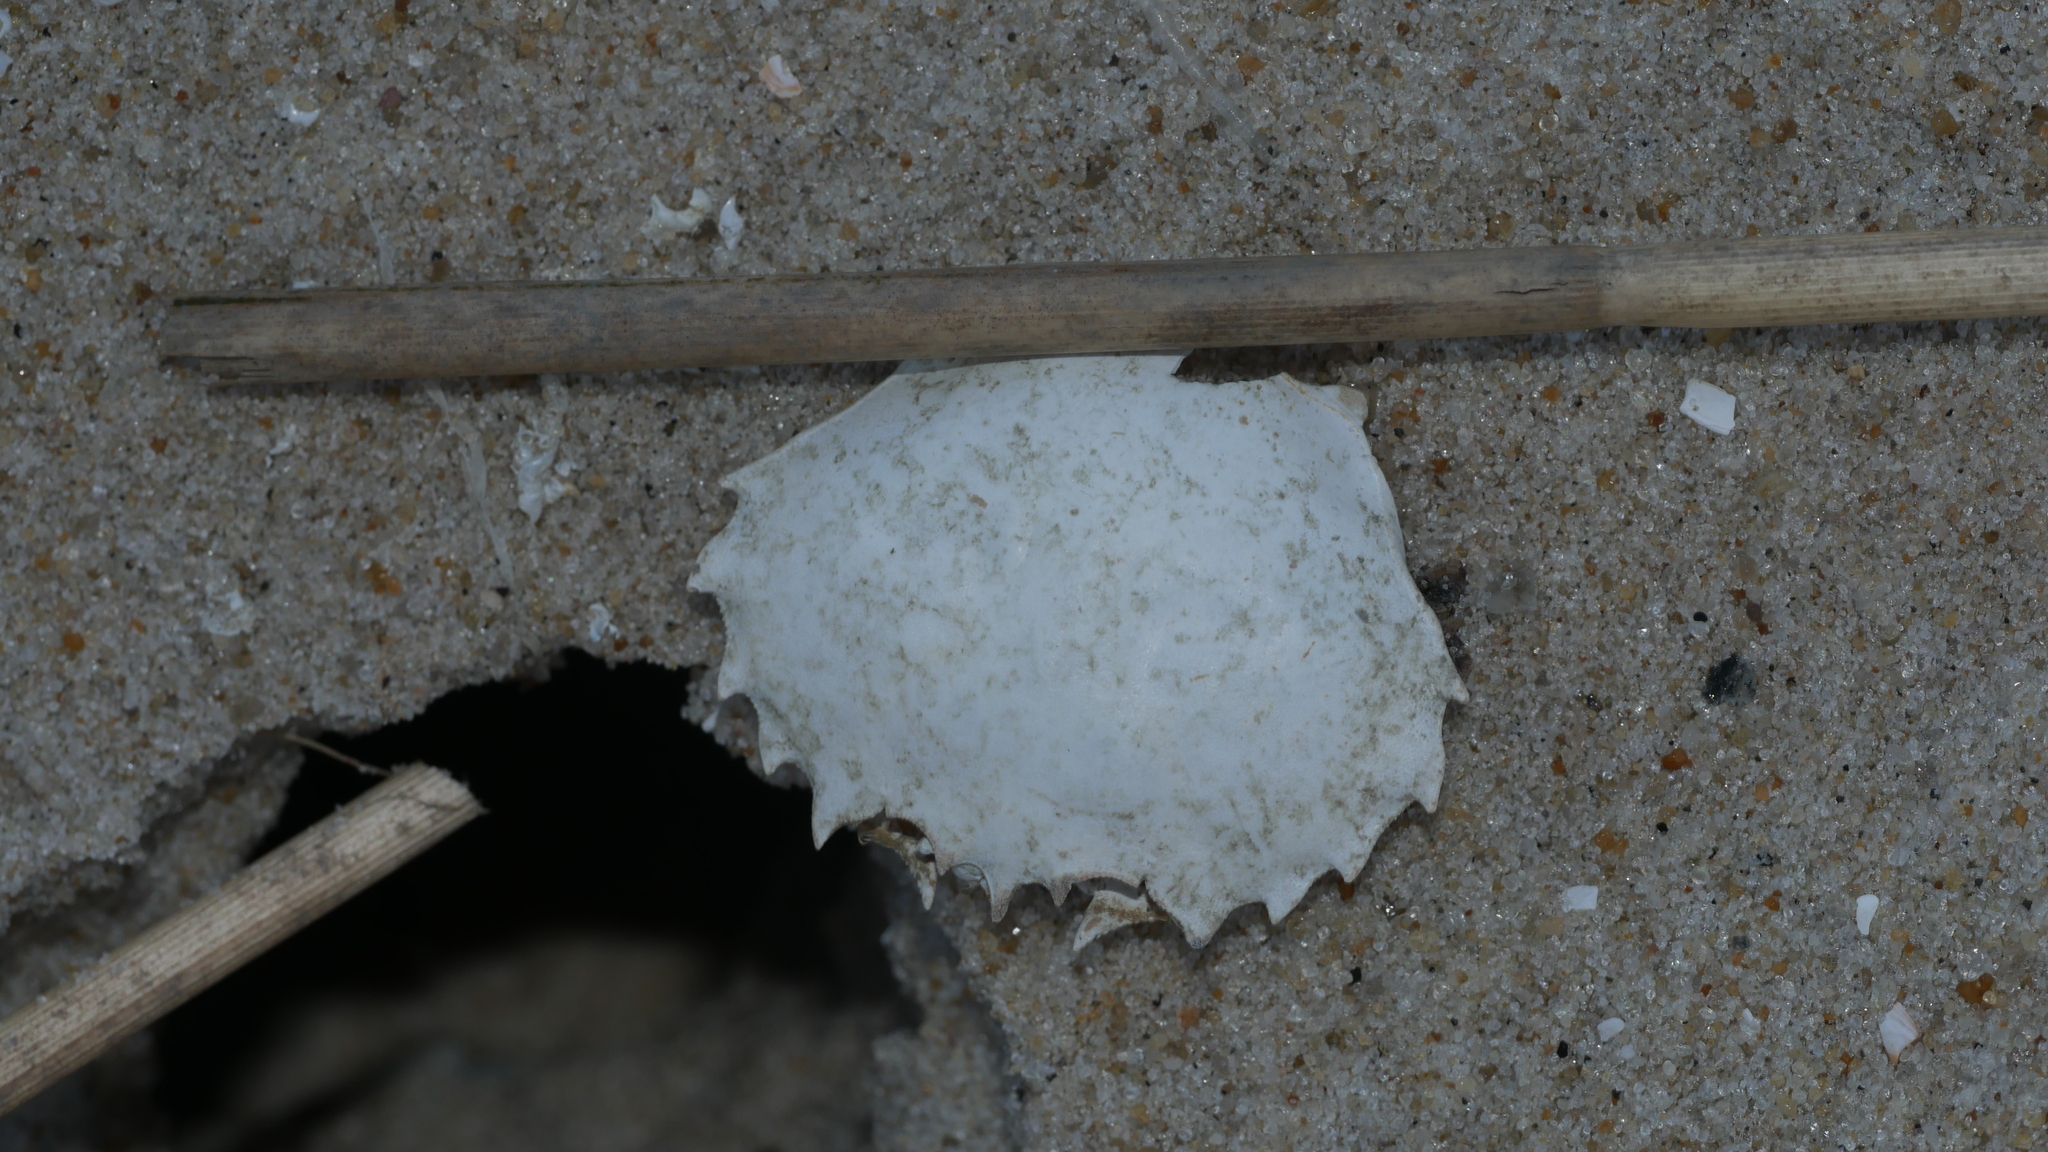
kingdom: Animalia
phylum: Arthropoda
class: Malacostraca
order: Decapoda
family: Ovalipidae
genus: Ovalipes
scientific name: Ovalipes ocellatus
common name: Lady crab
